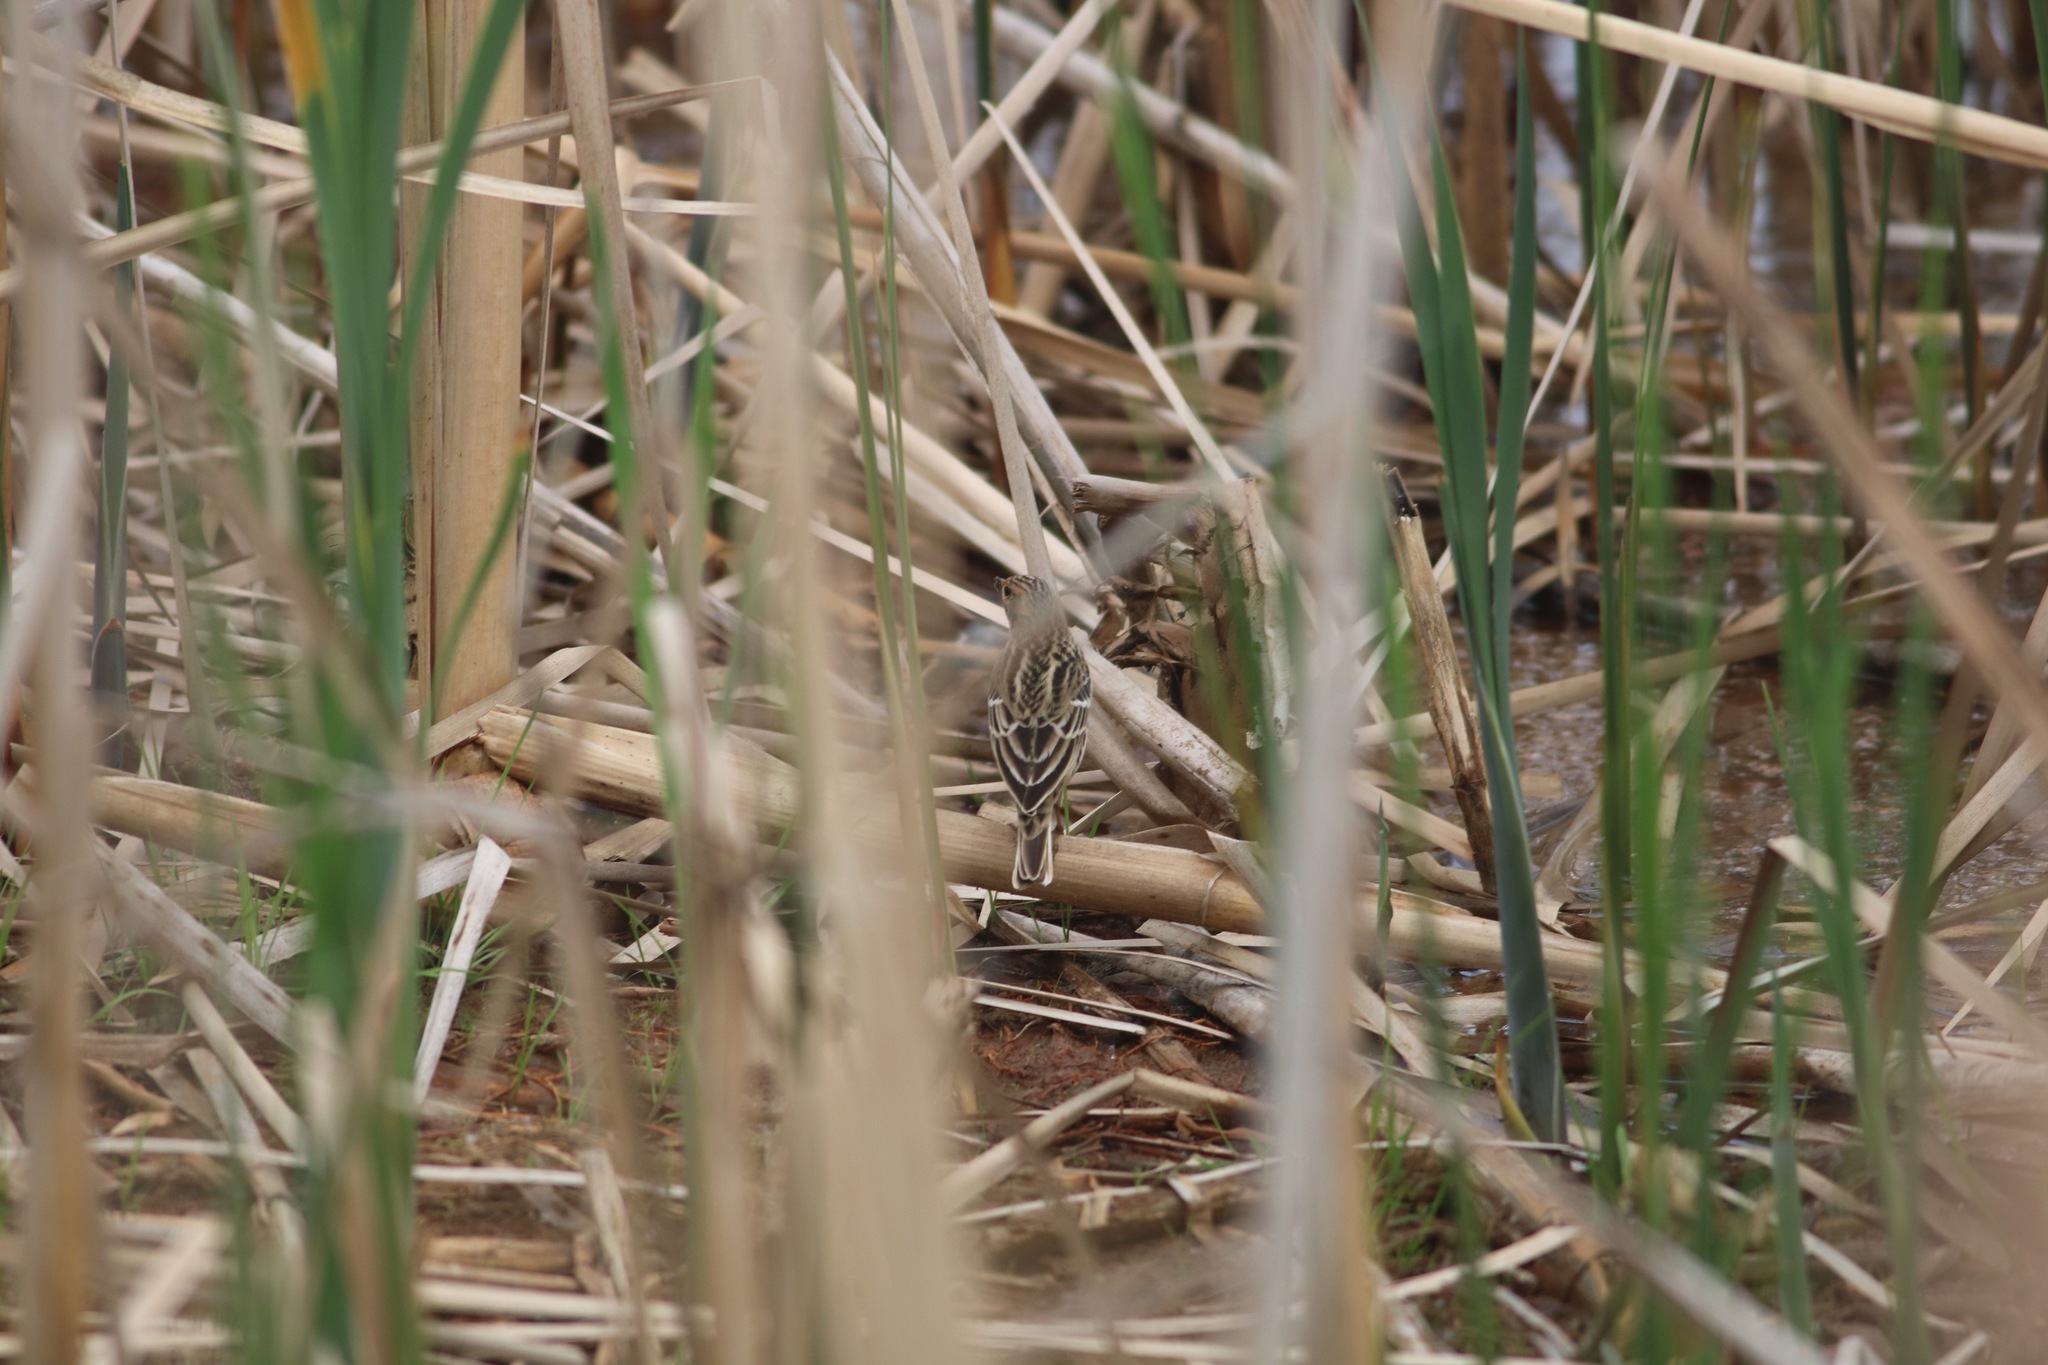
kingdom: Animalia
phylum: Chordata
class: Aves
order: Passeriformes
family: Motacillidae
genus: Anthus
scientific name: Anthus cervinus
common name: Red-throated pipit
